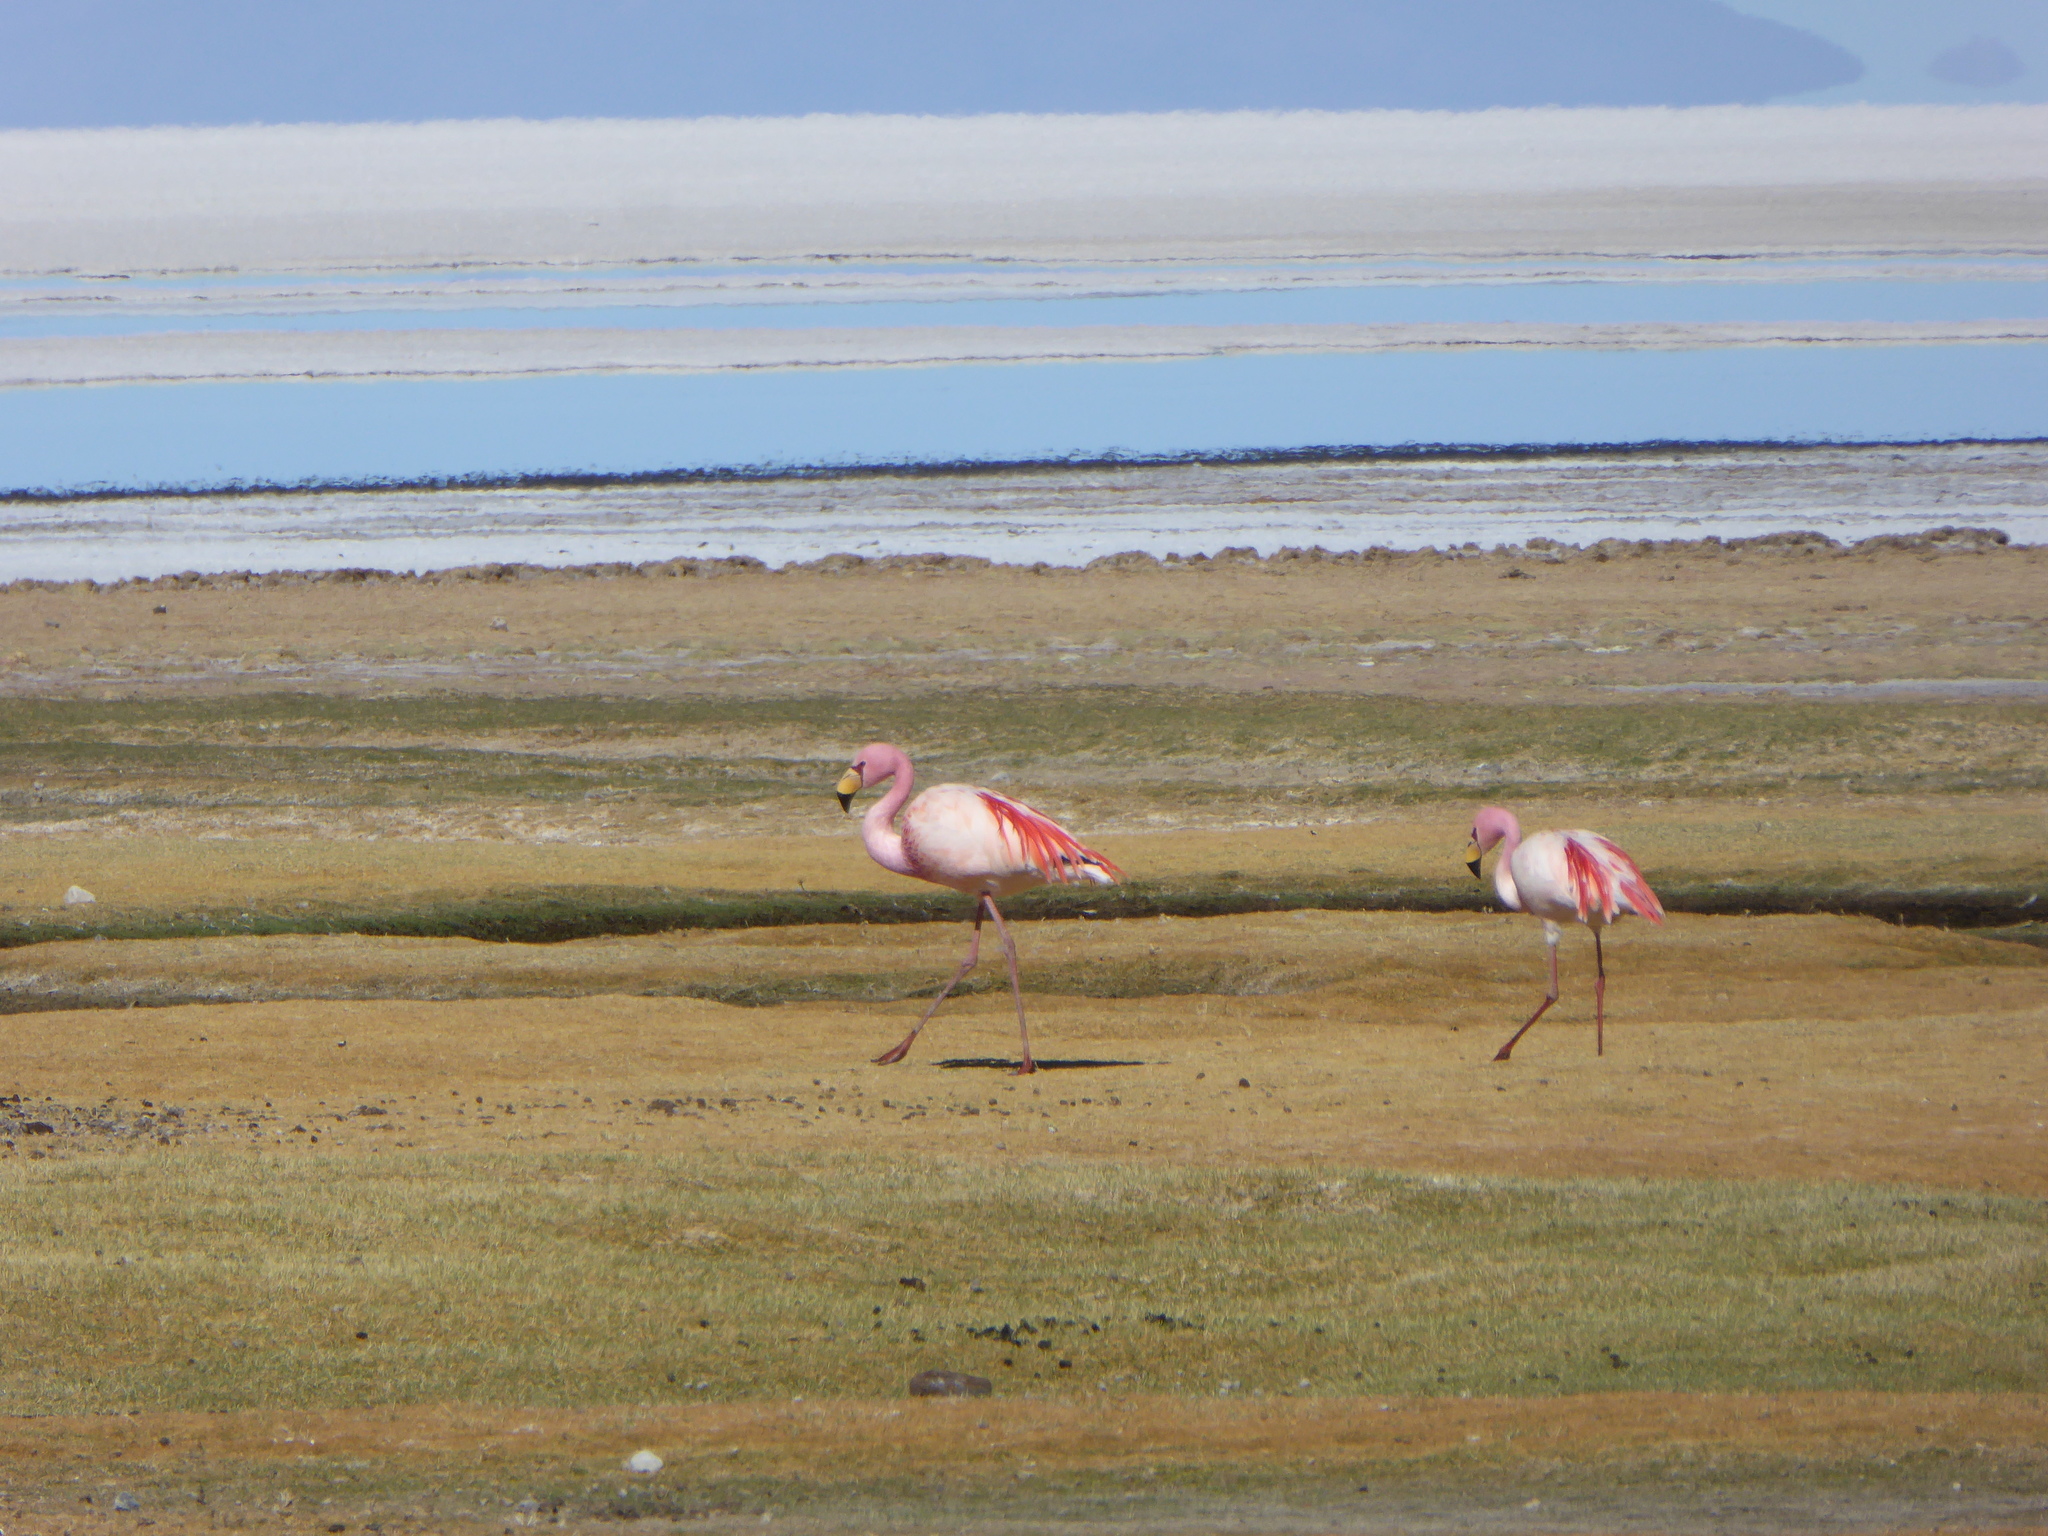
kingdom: Animalia
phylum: Chordata
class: Aves
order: Phoenicopteriformes
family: Phoenicopteridae
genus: Phoenicoparrus
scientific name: Phoenicoparrus jamesi
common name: James's flamingo
